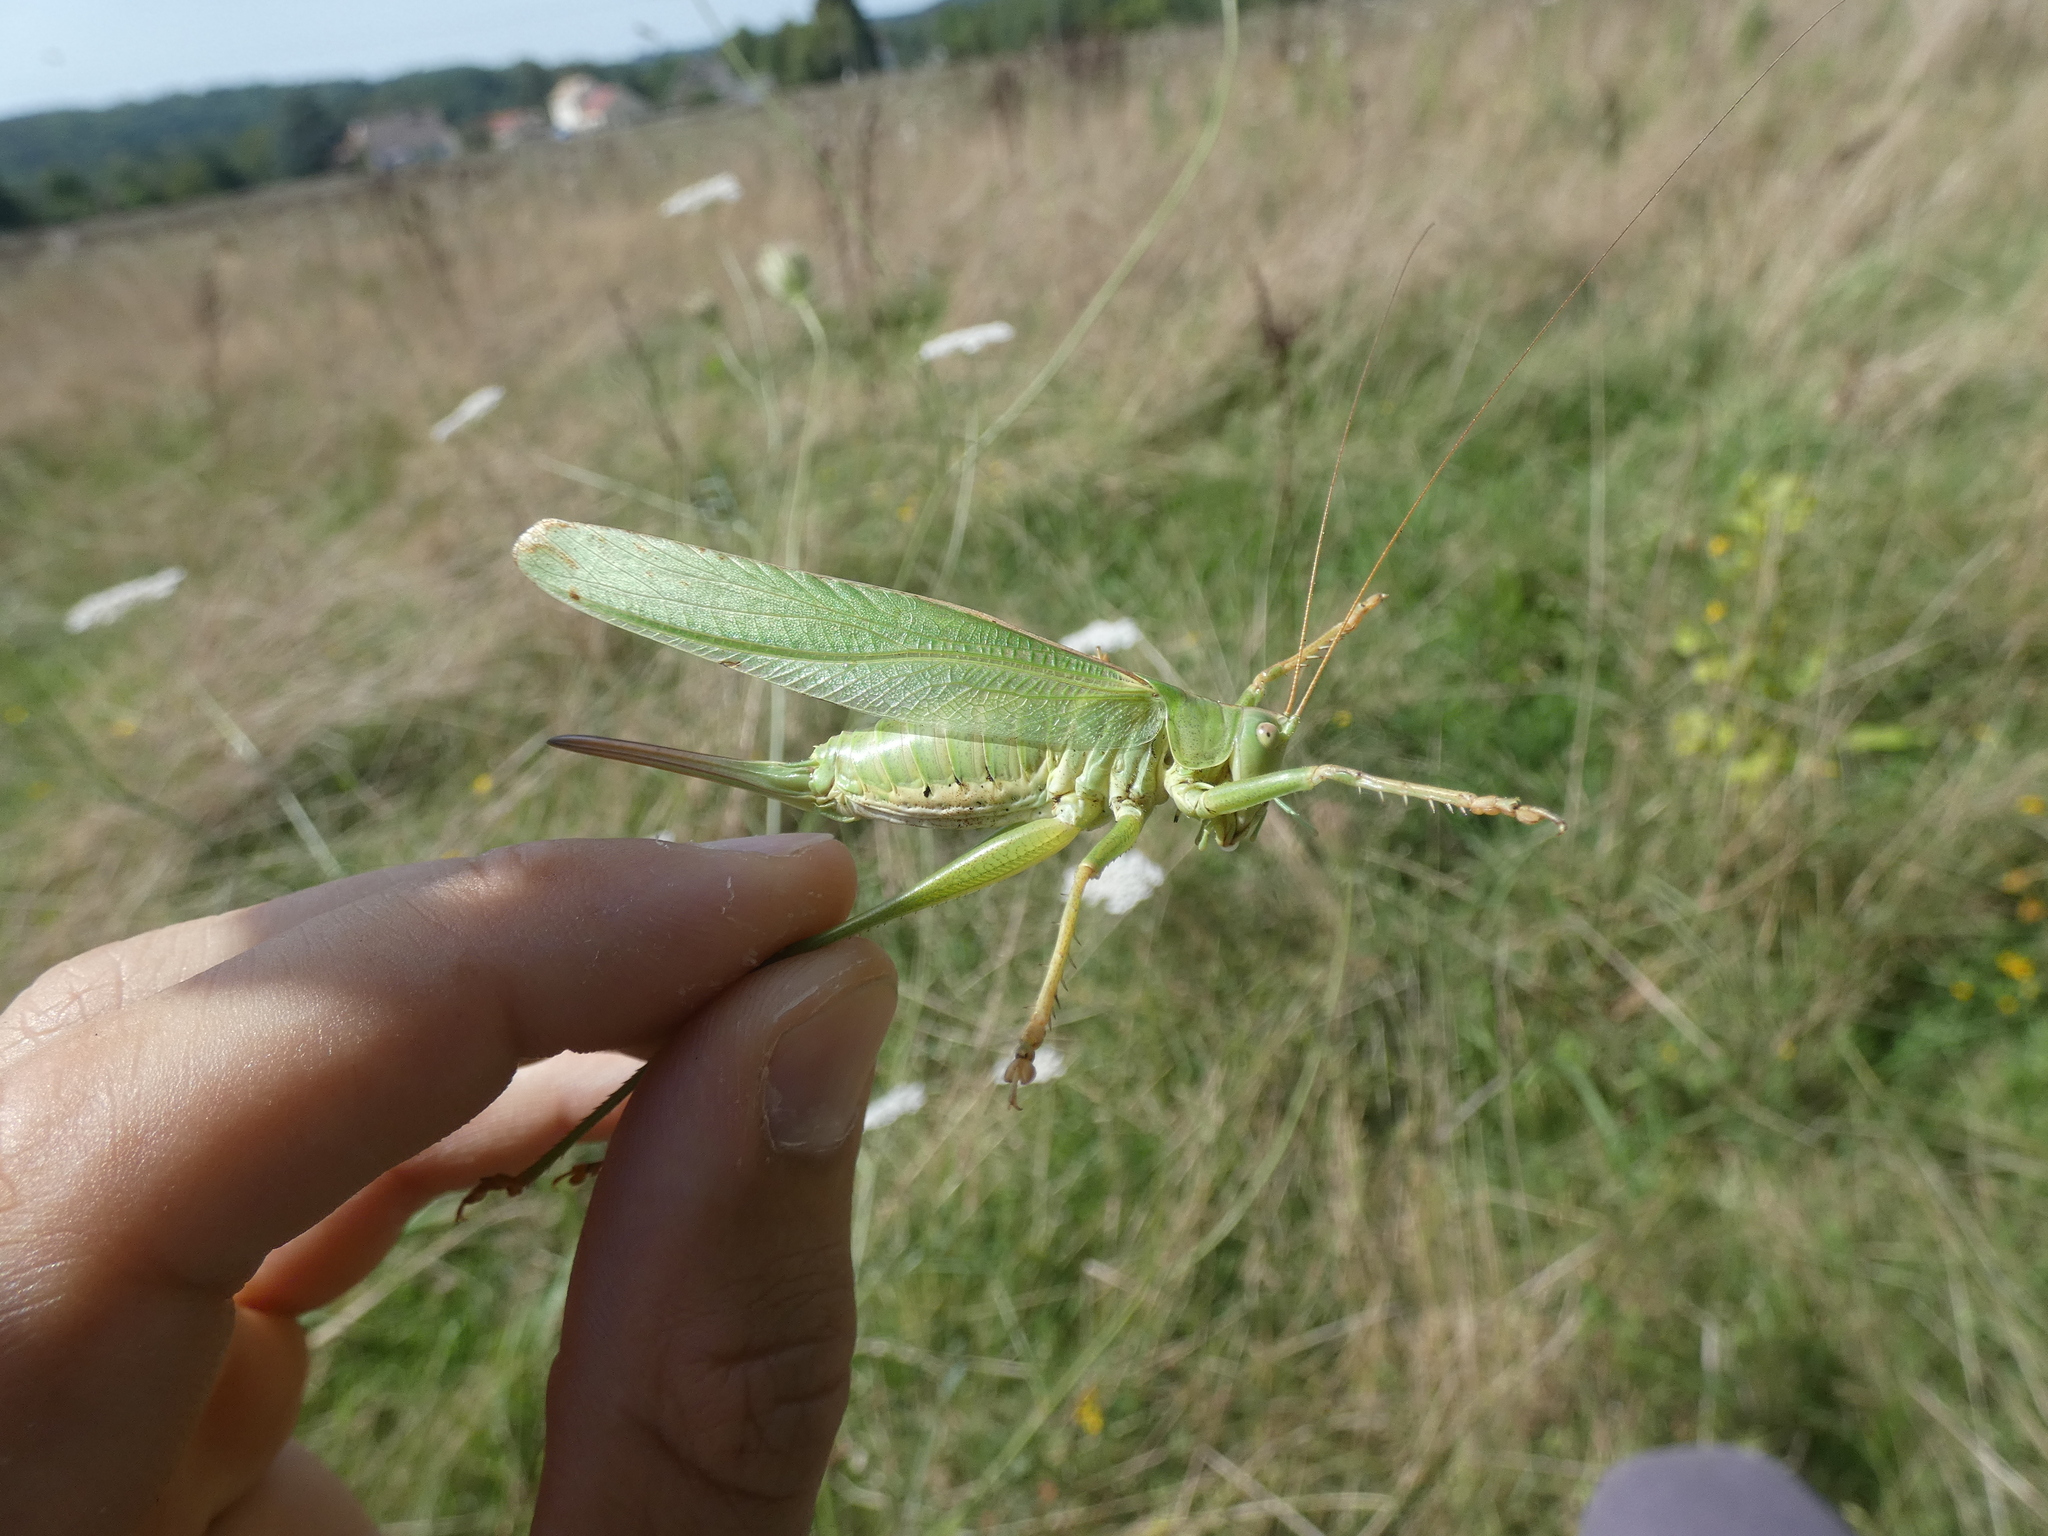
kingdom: Animalia
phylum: Arthropoda
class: Insecta
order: Orthoptera
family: Tettigoniidae
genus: Tettigonia
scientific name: Tettigonia viridissima
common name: Great green bush-cricket
